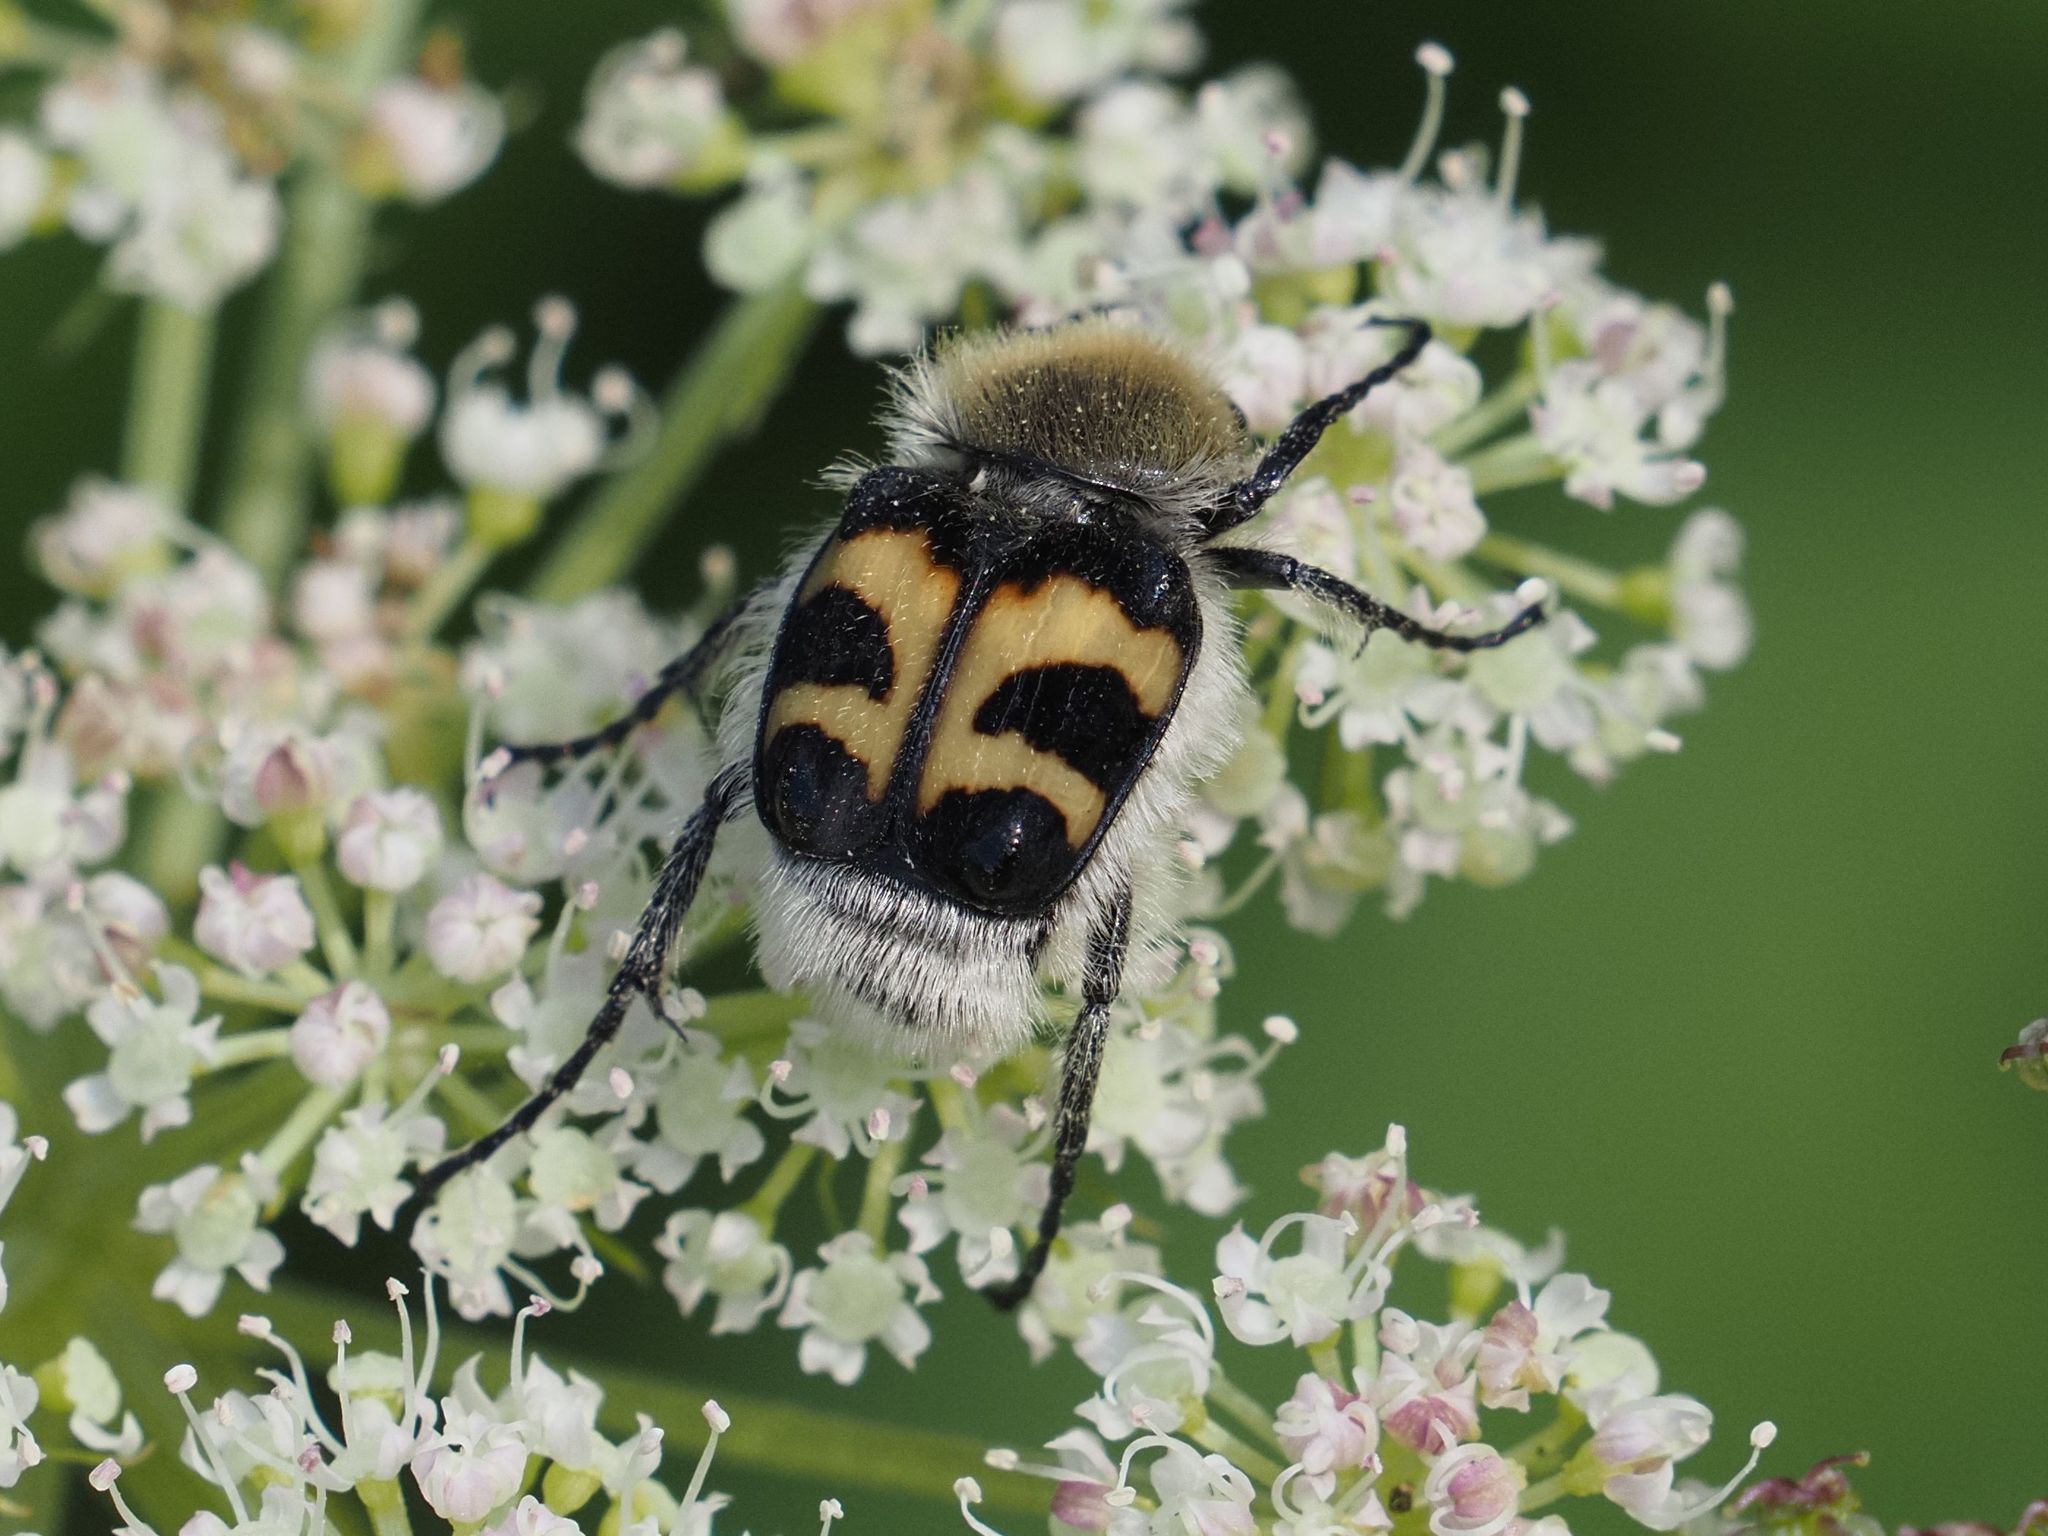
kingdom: Animalia
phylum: Arthropoda
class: Insecta
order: Coleoptera
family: Scarabaeidae
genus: Trichius
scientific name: Trichius fasciatus
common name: Bee beetle
